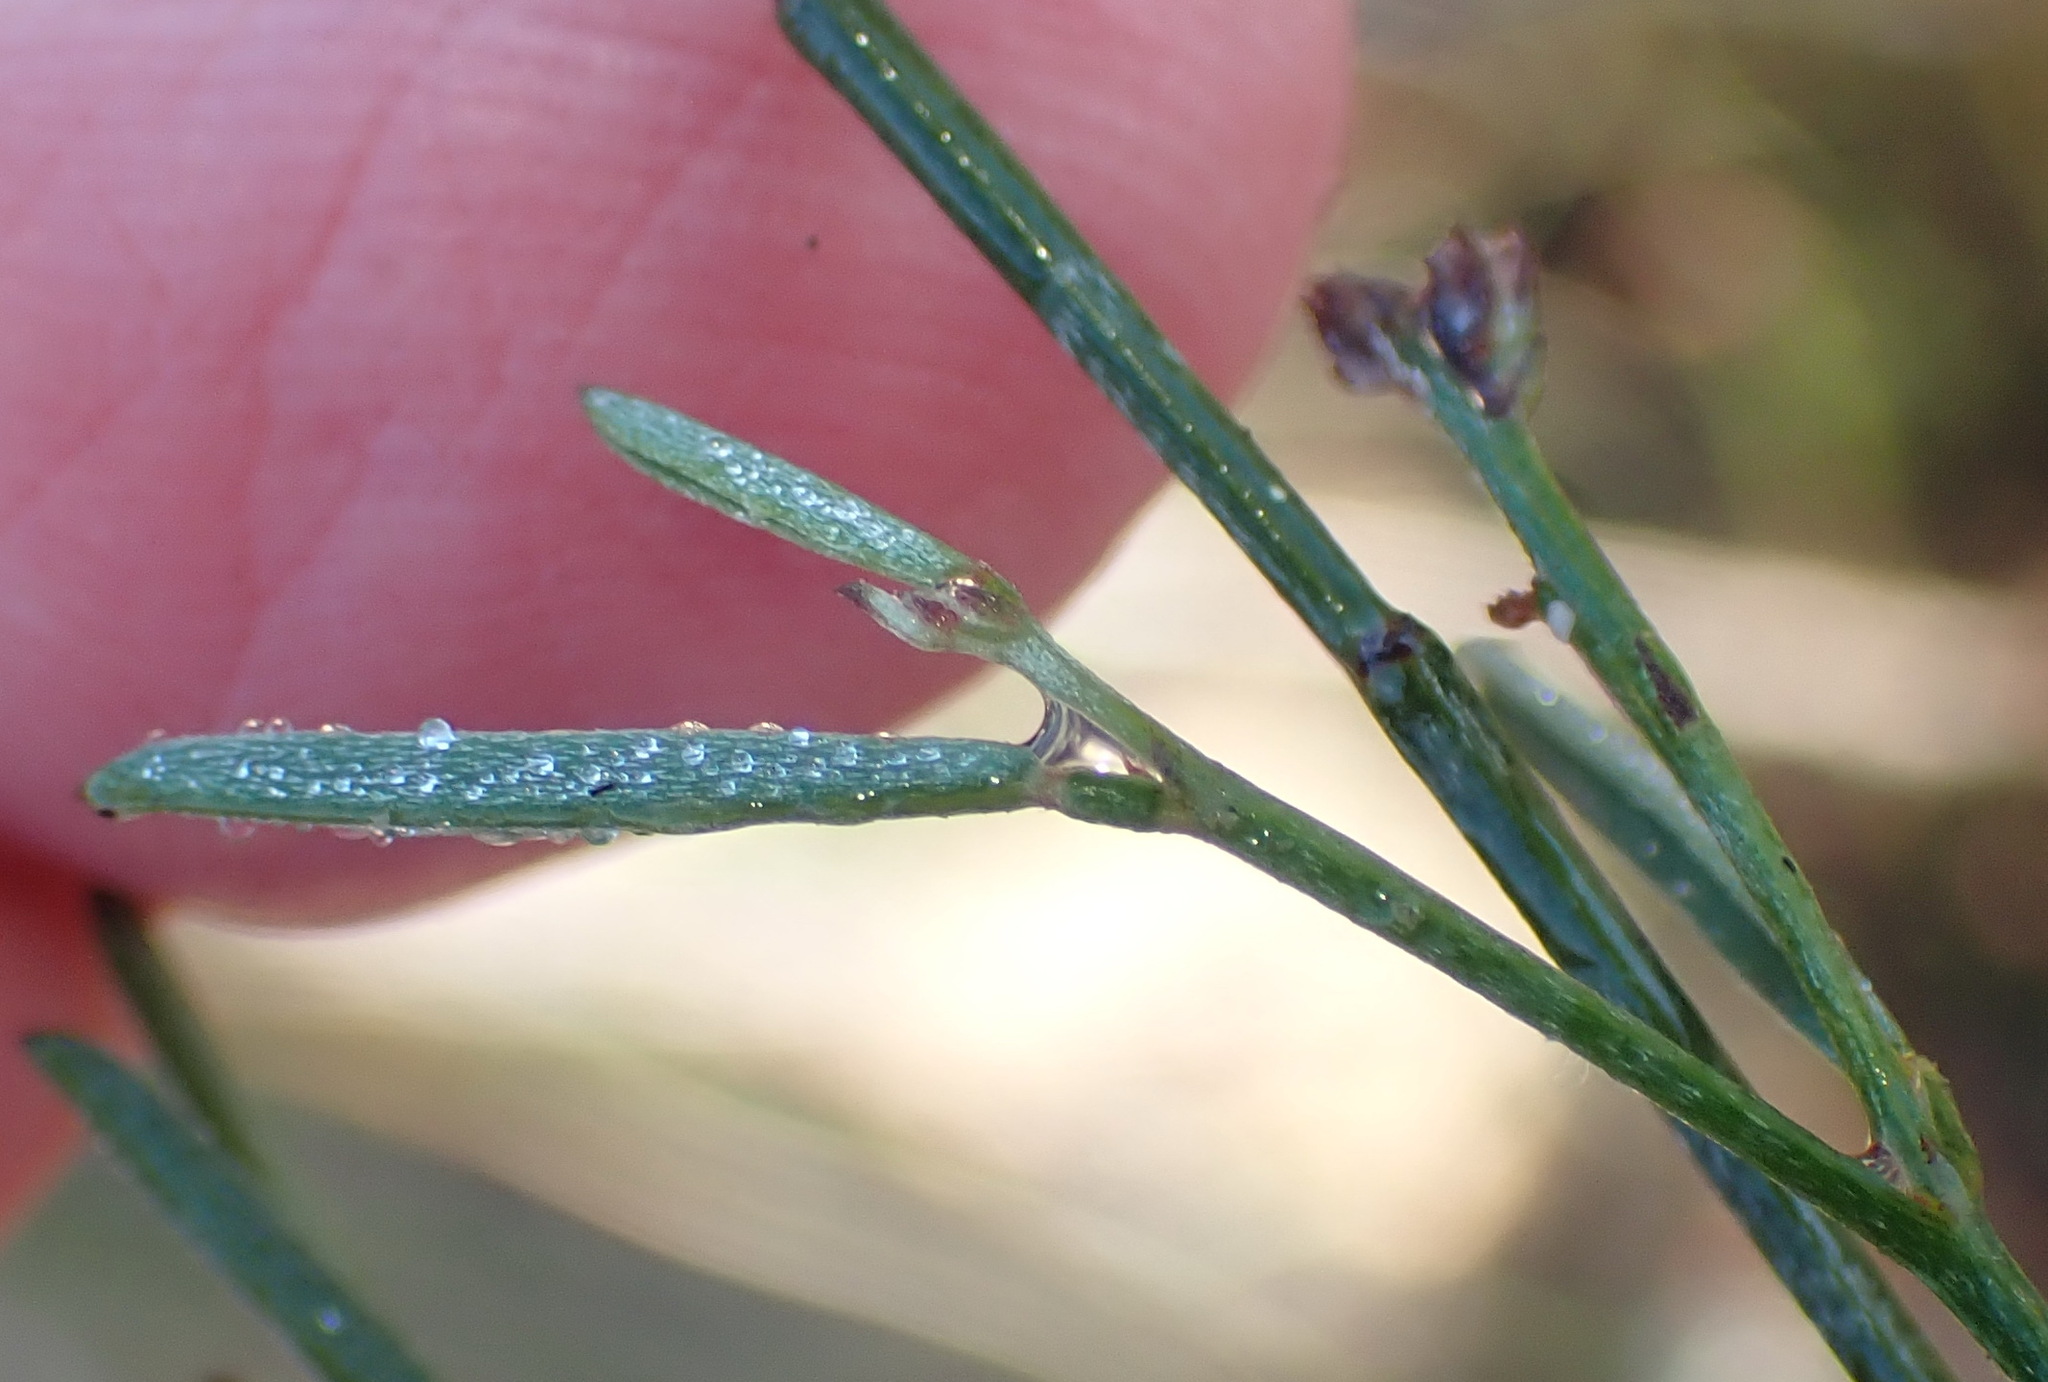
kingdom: Plantae
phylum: Tracheophyta
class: Magnoliopsida
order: Fabales
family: Fabaceae
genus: Indigofera
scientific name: Indigofera leptocarpa
